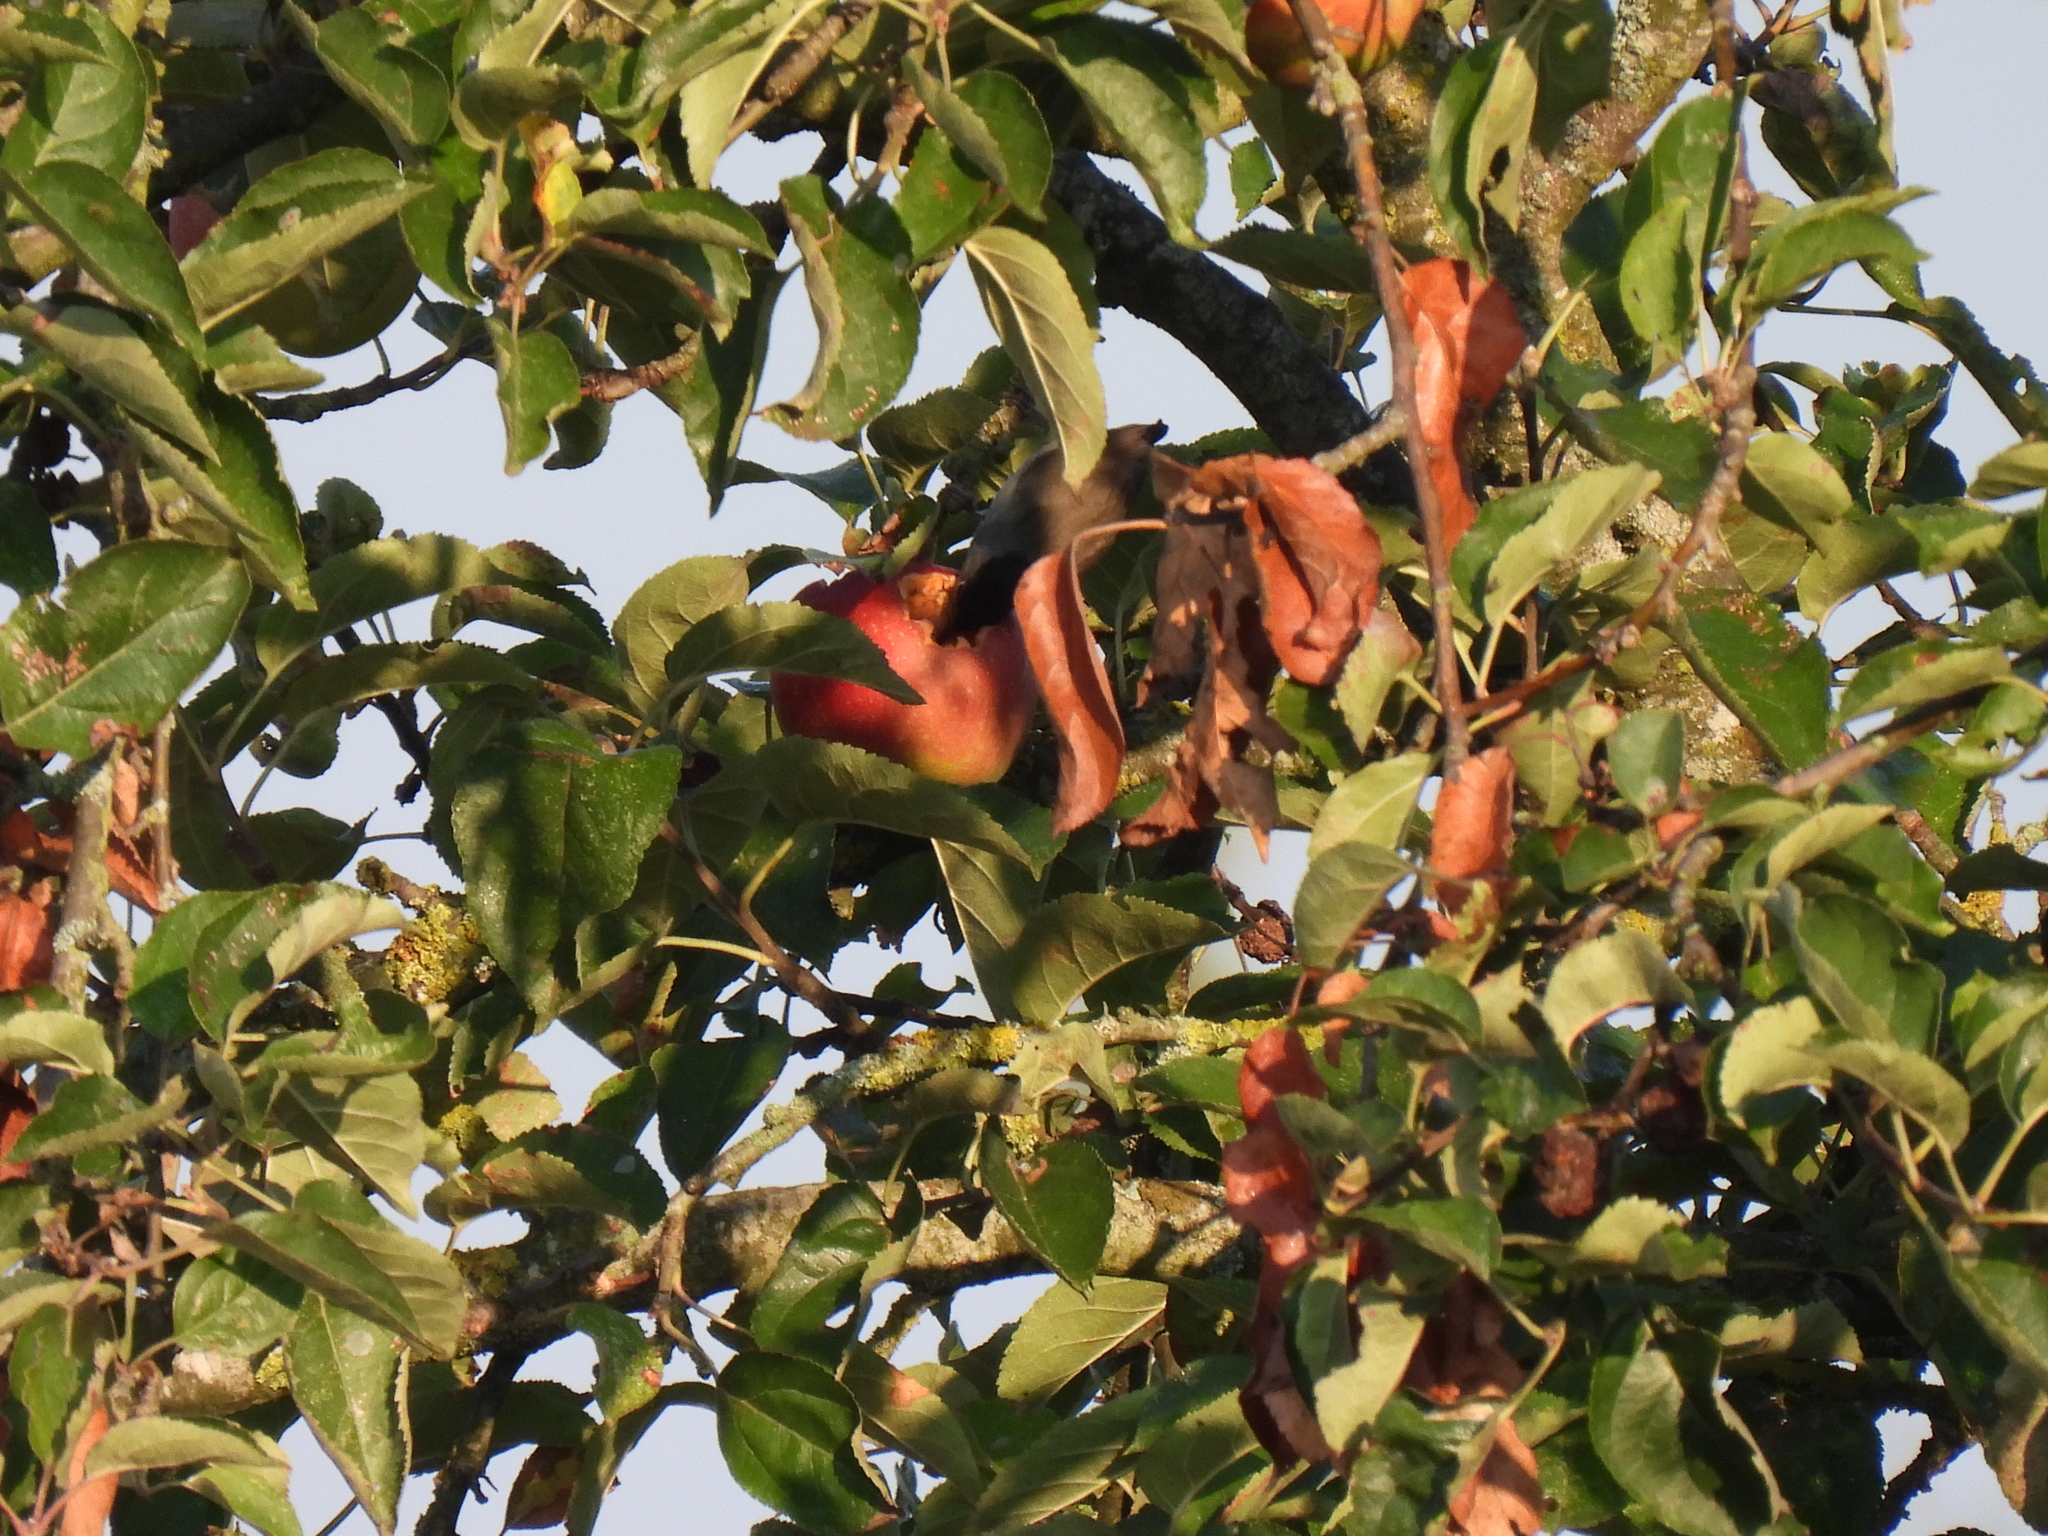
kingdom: Animalia
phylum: Chordata
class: Aves
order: Passeriformes
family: Sylviidae
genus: Sylvia
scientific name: Sylvia atricapilla
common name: Eurasian blackcap
